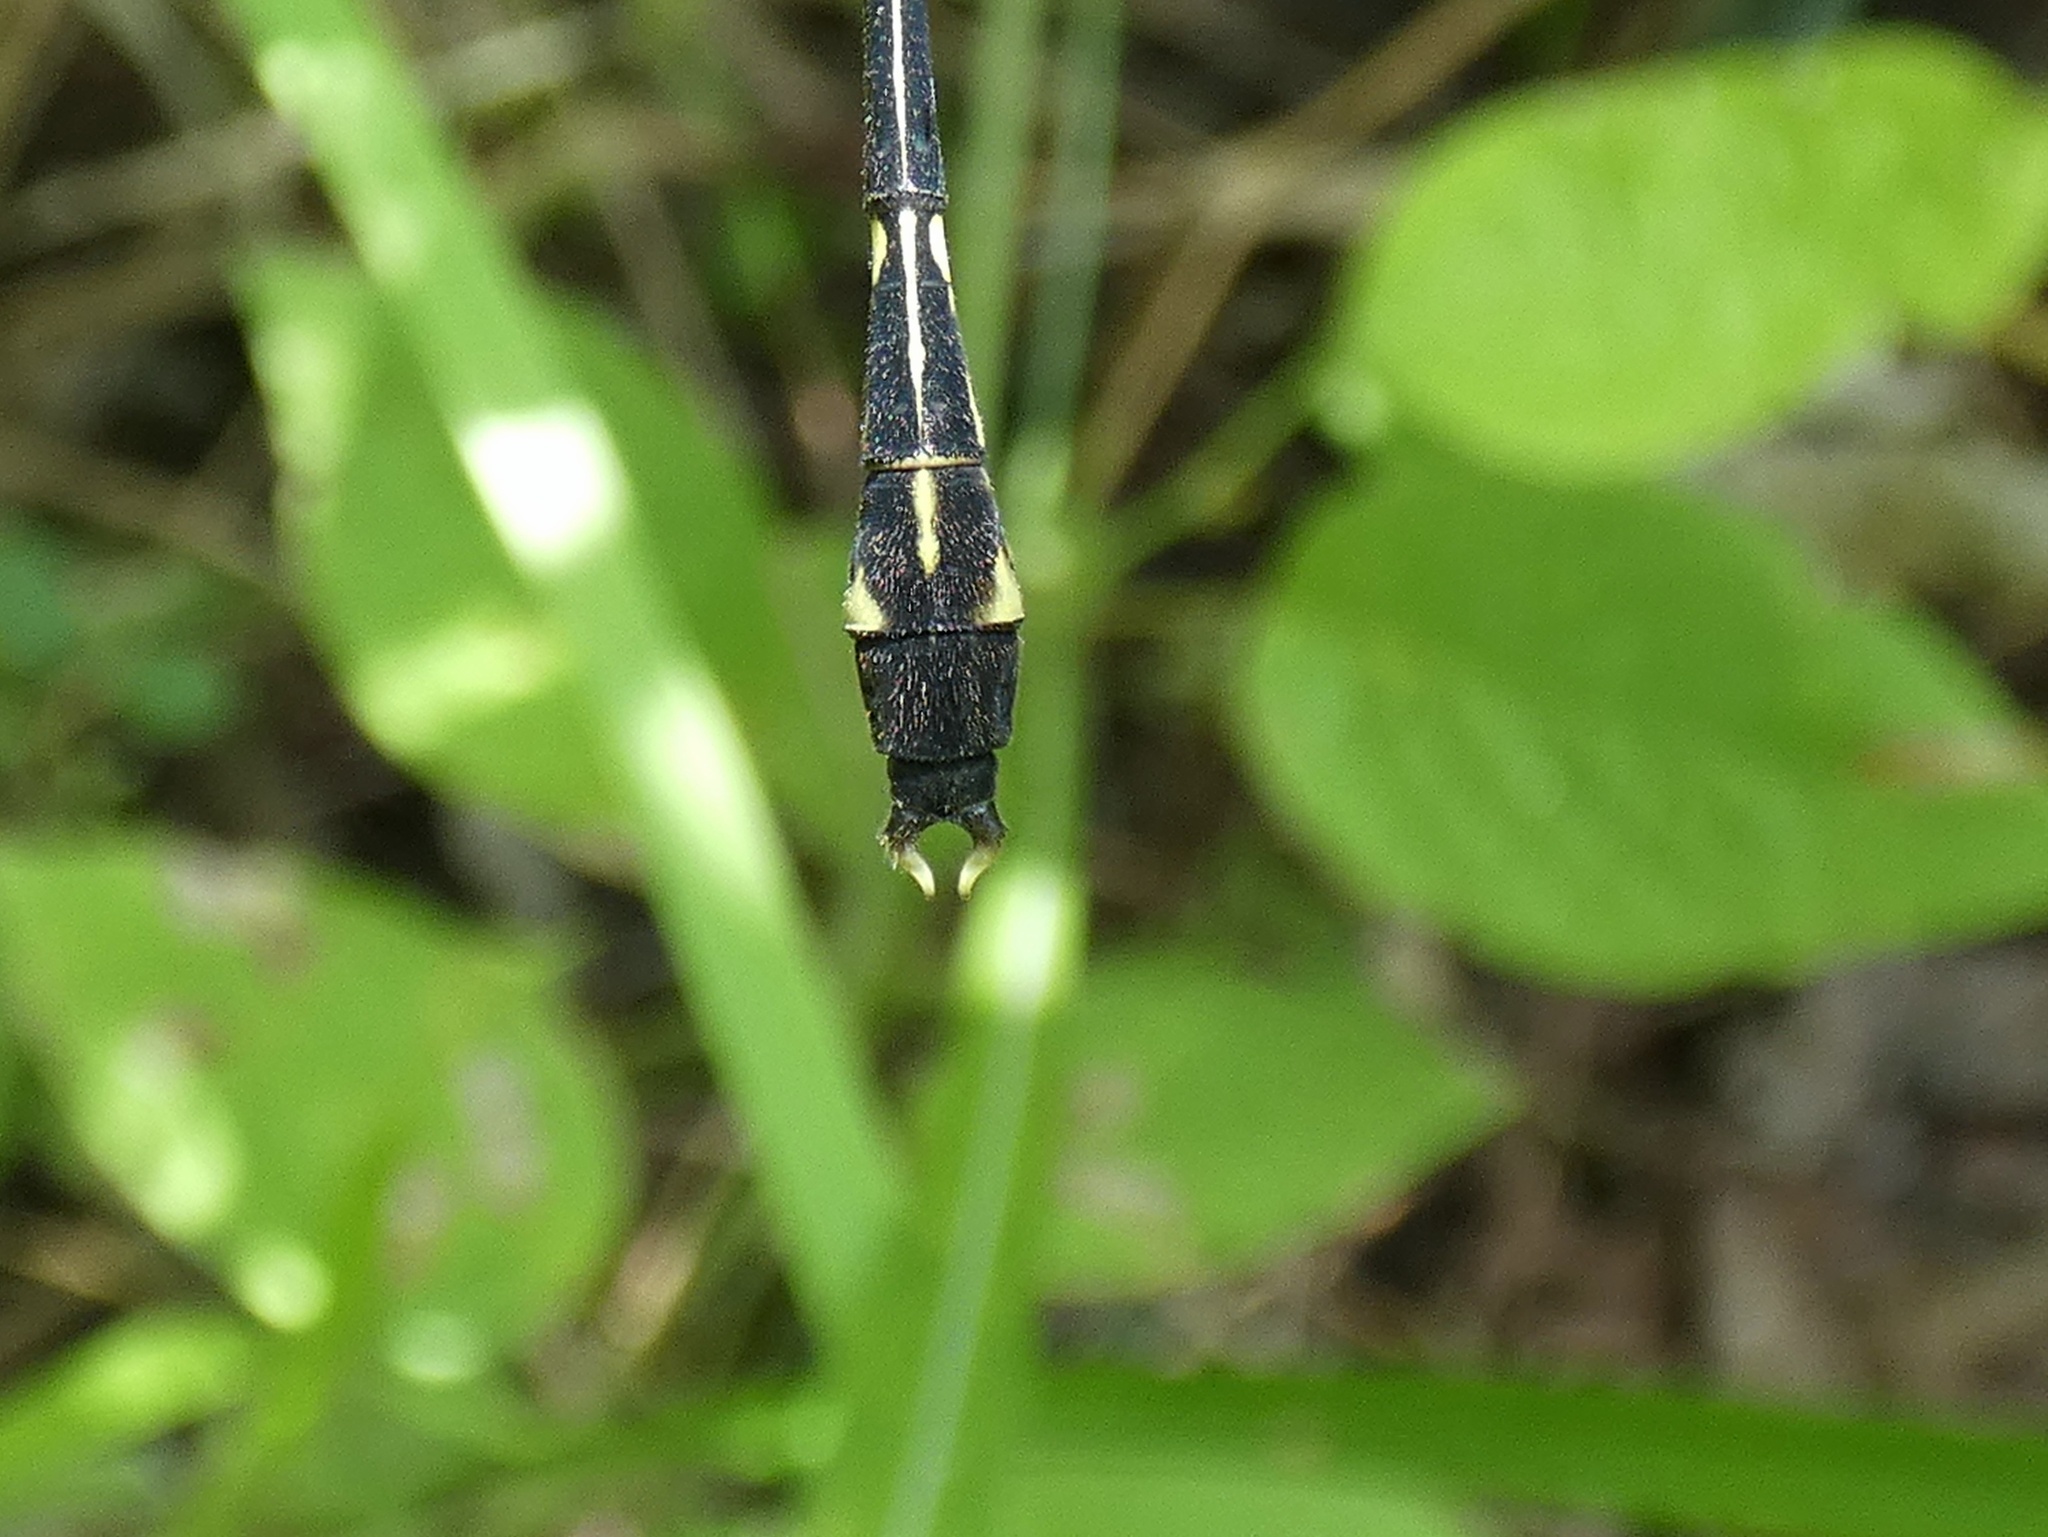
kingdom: Animalia
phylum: Arthropoda
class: Insecta
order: Odonata
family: Gomphidae
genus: Heliogomphus
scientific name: Heliogomphus bakeri
